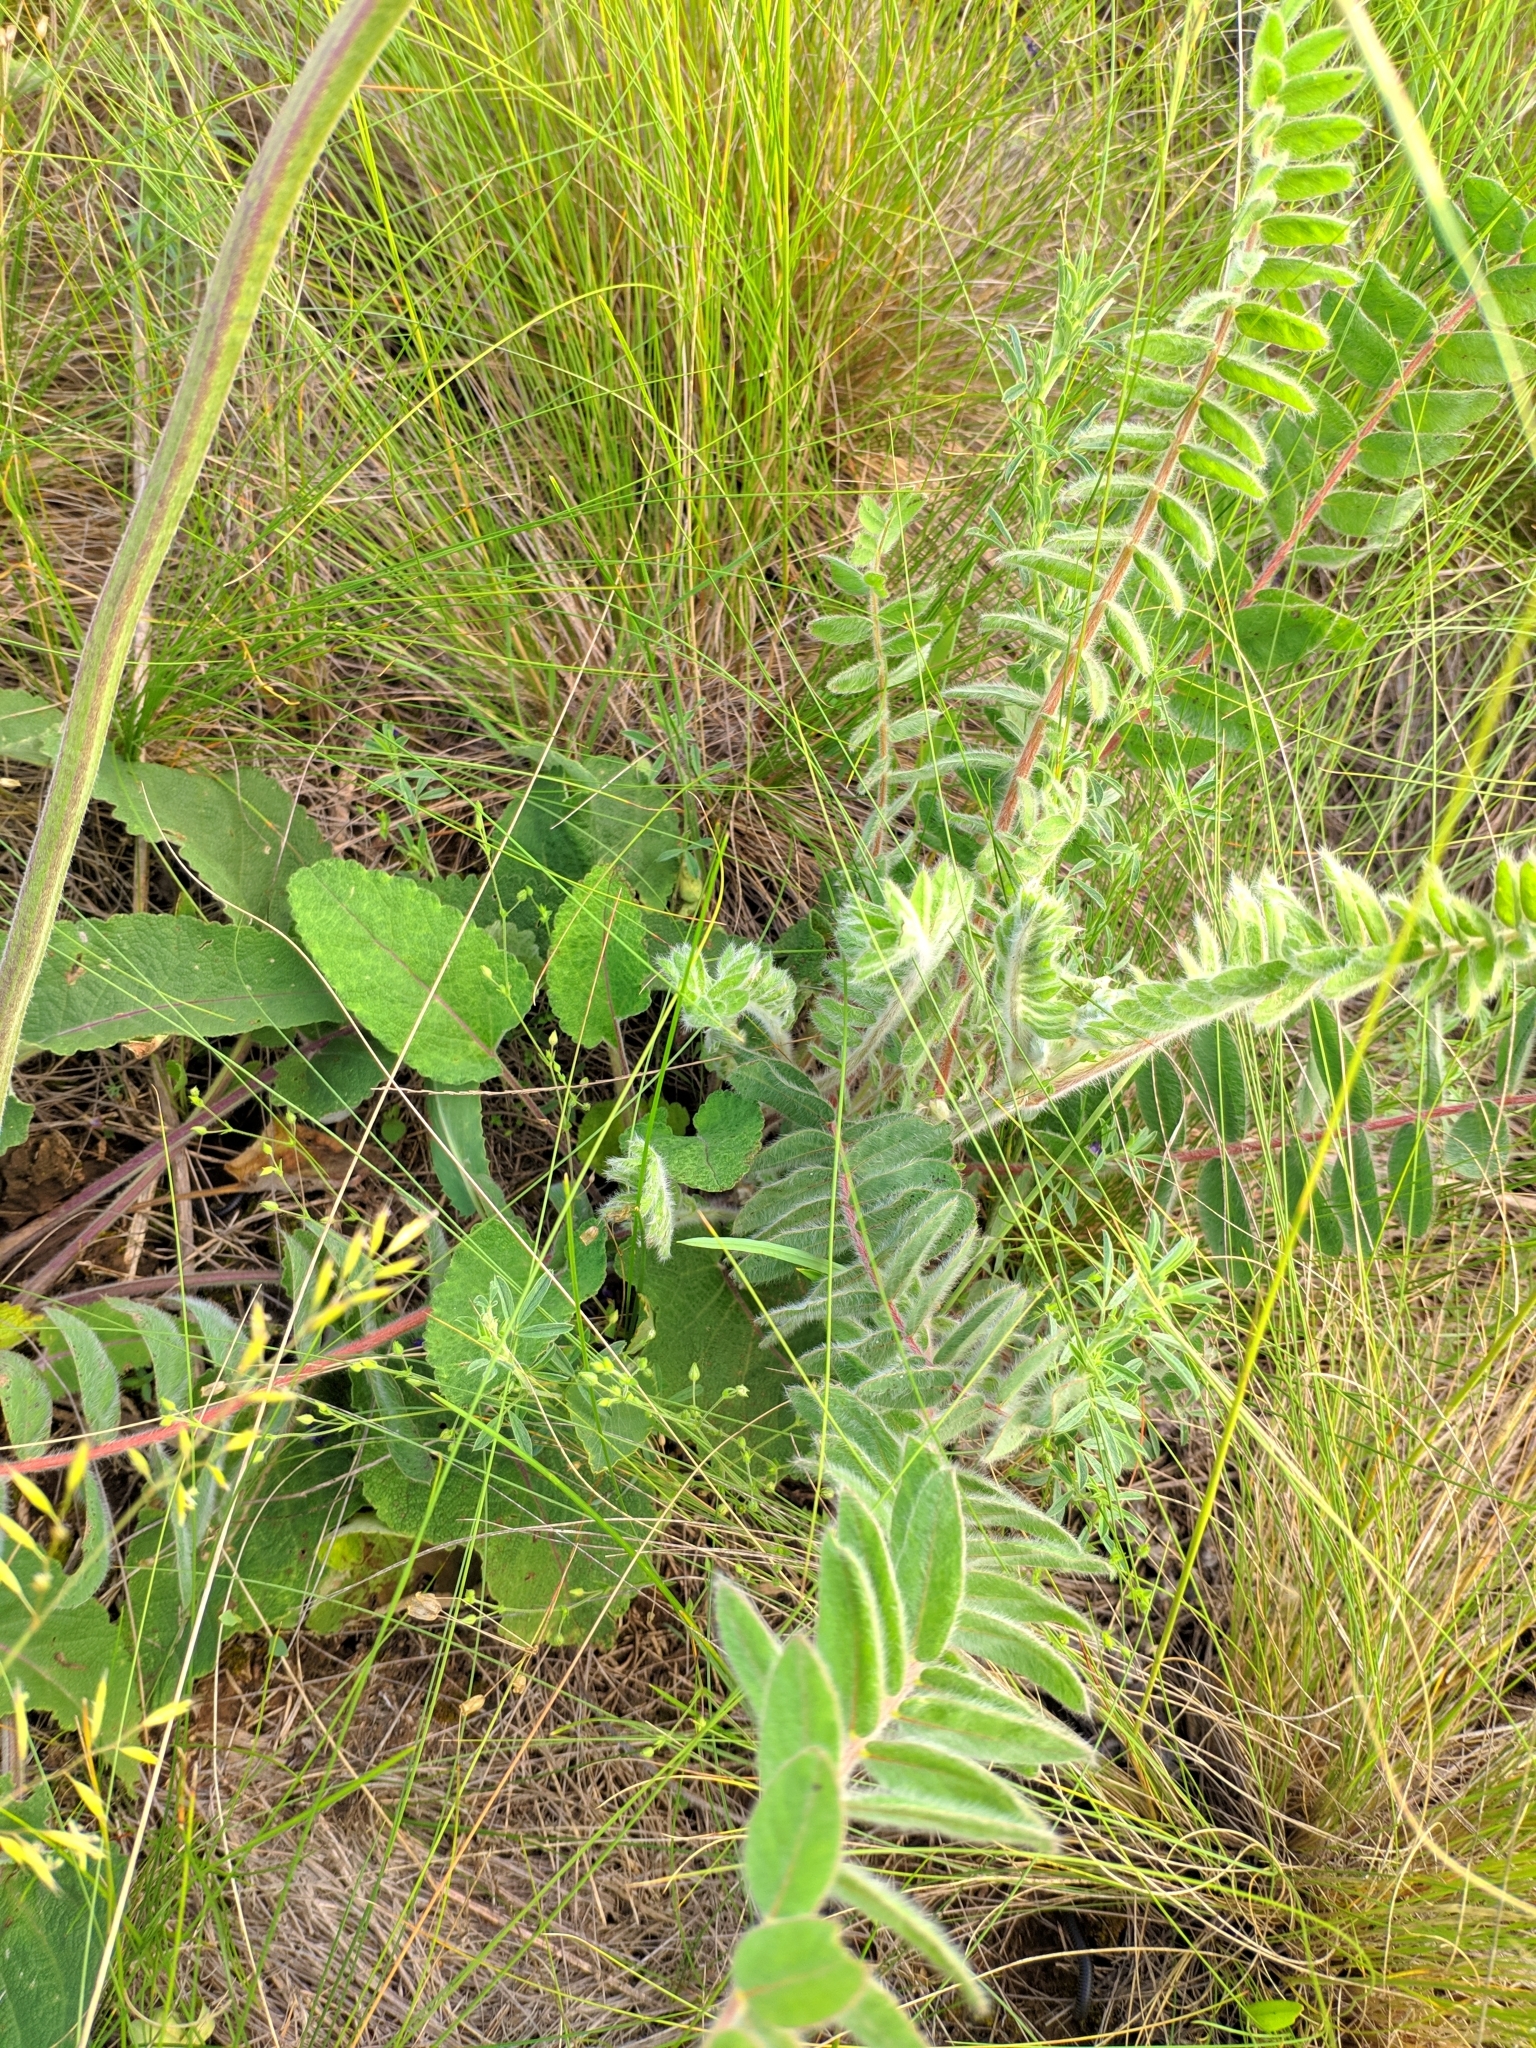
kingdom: Plantae
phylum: Tracheophyta
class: Magnoliopsida
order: Fabales
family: Fabaceae
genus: Astragalus
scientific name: Astragalus dasyanthus
